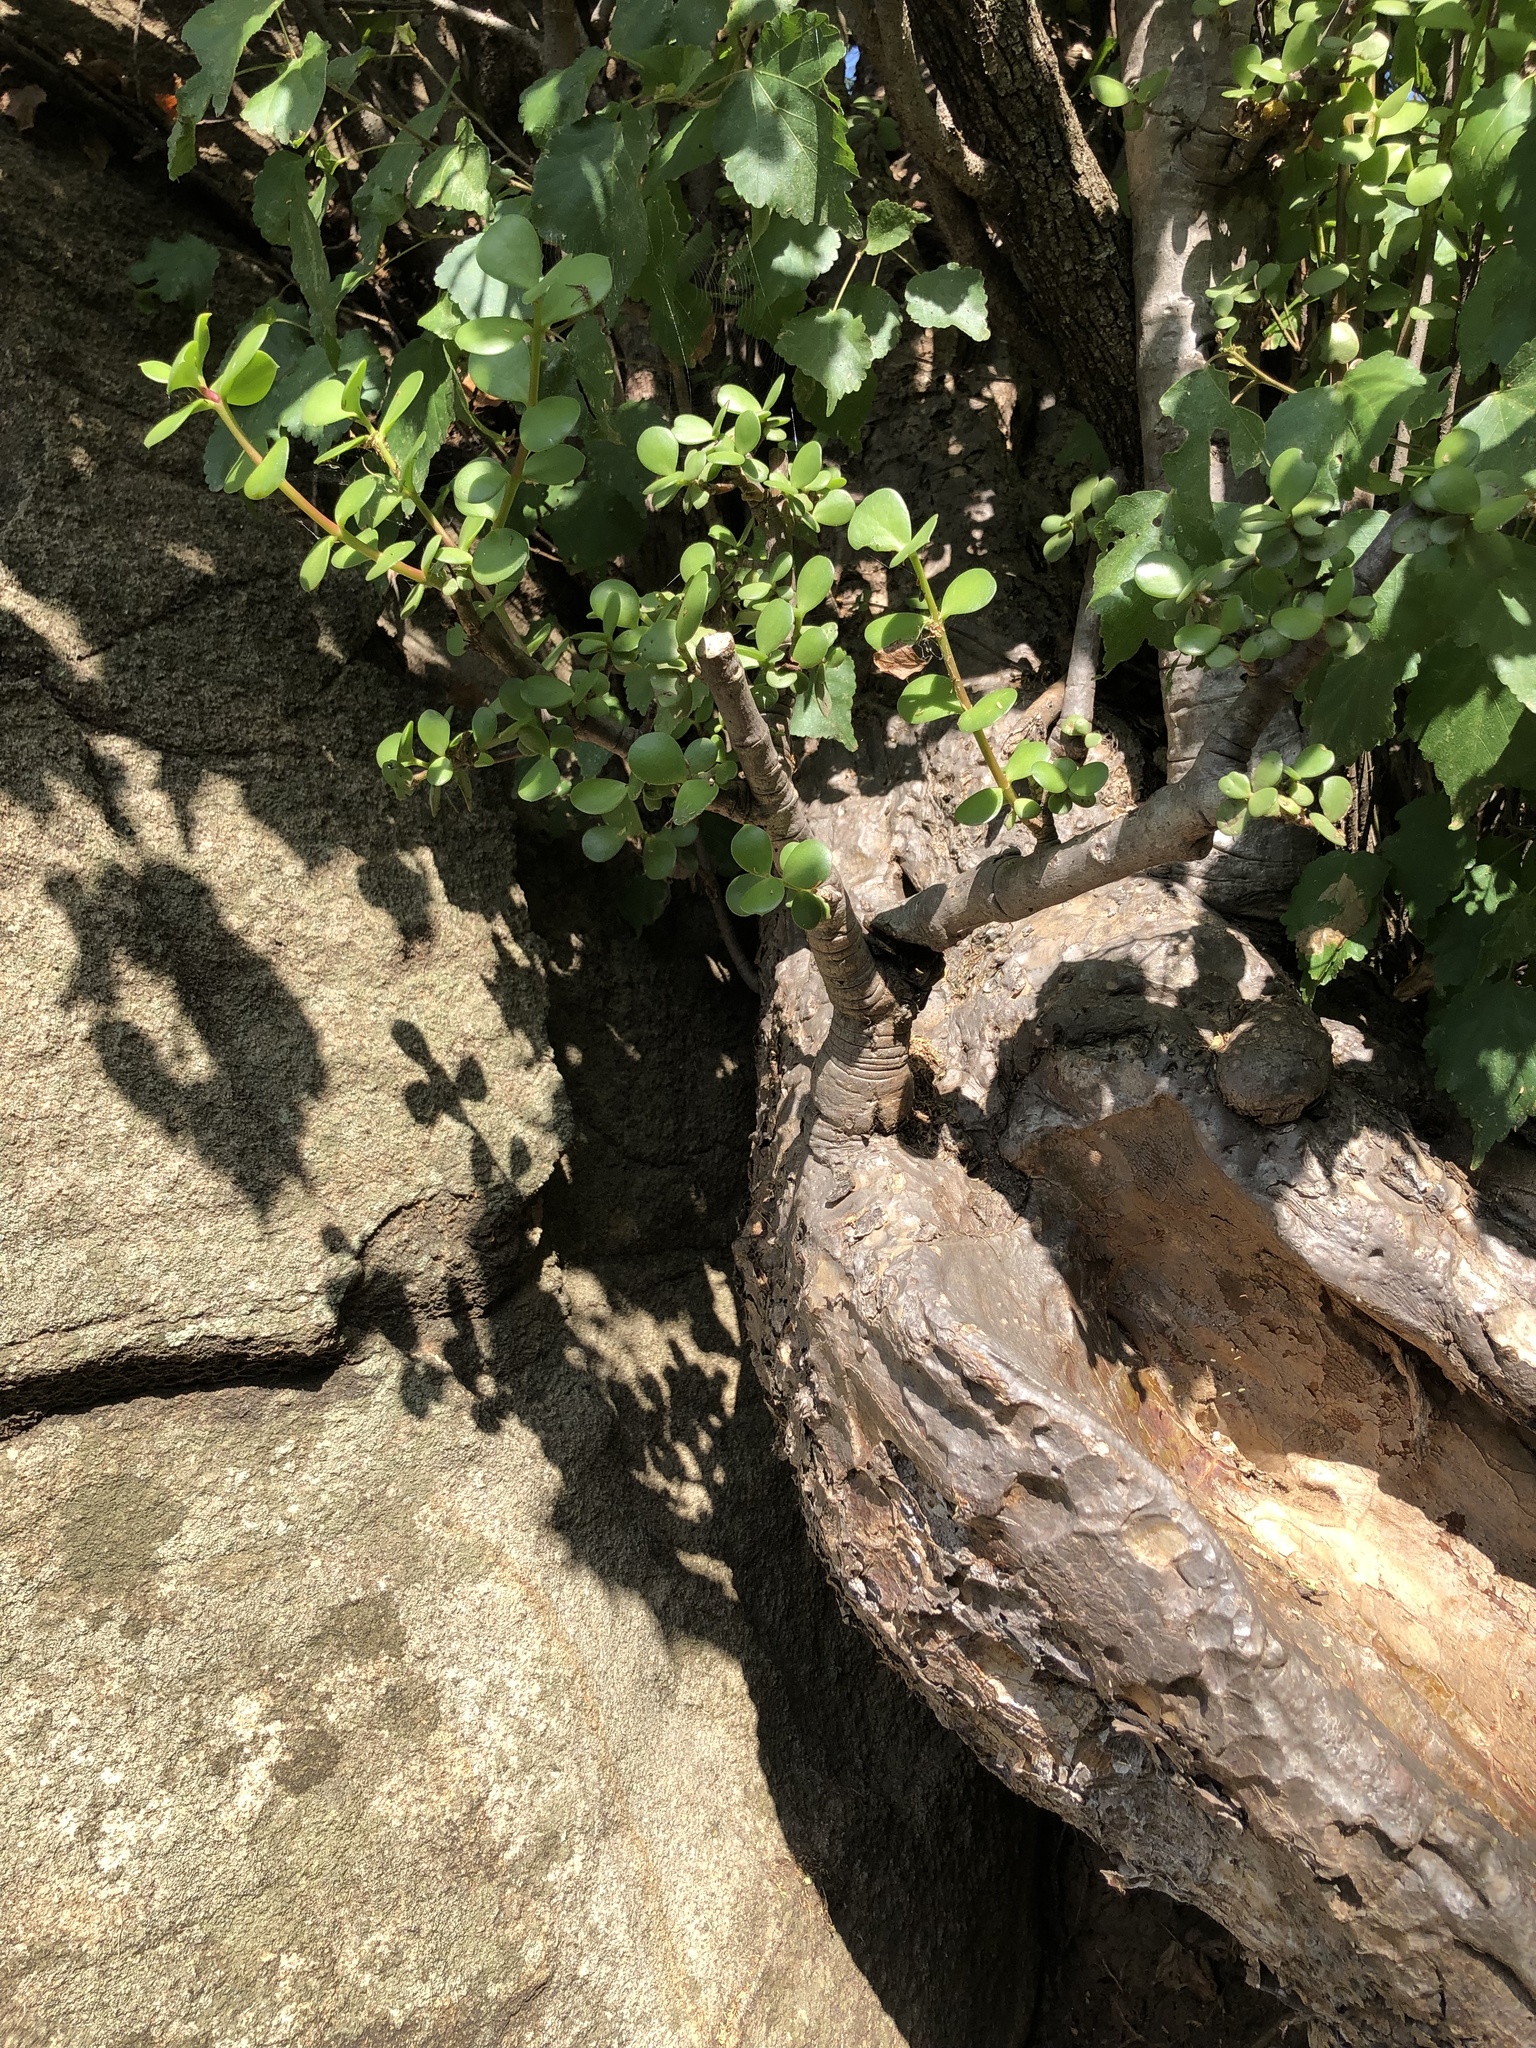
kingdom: Plantae
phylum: Tracheophyta
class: Magnoliopsida
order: Caryophyllales
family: Didiereaceae
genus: Portulacaria
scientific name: Portulacaria afra
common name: Elephant-bush
